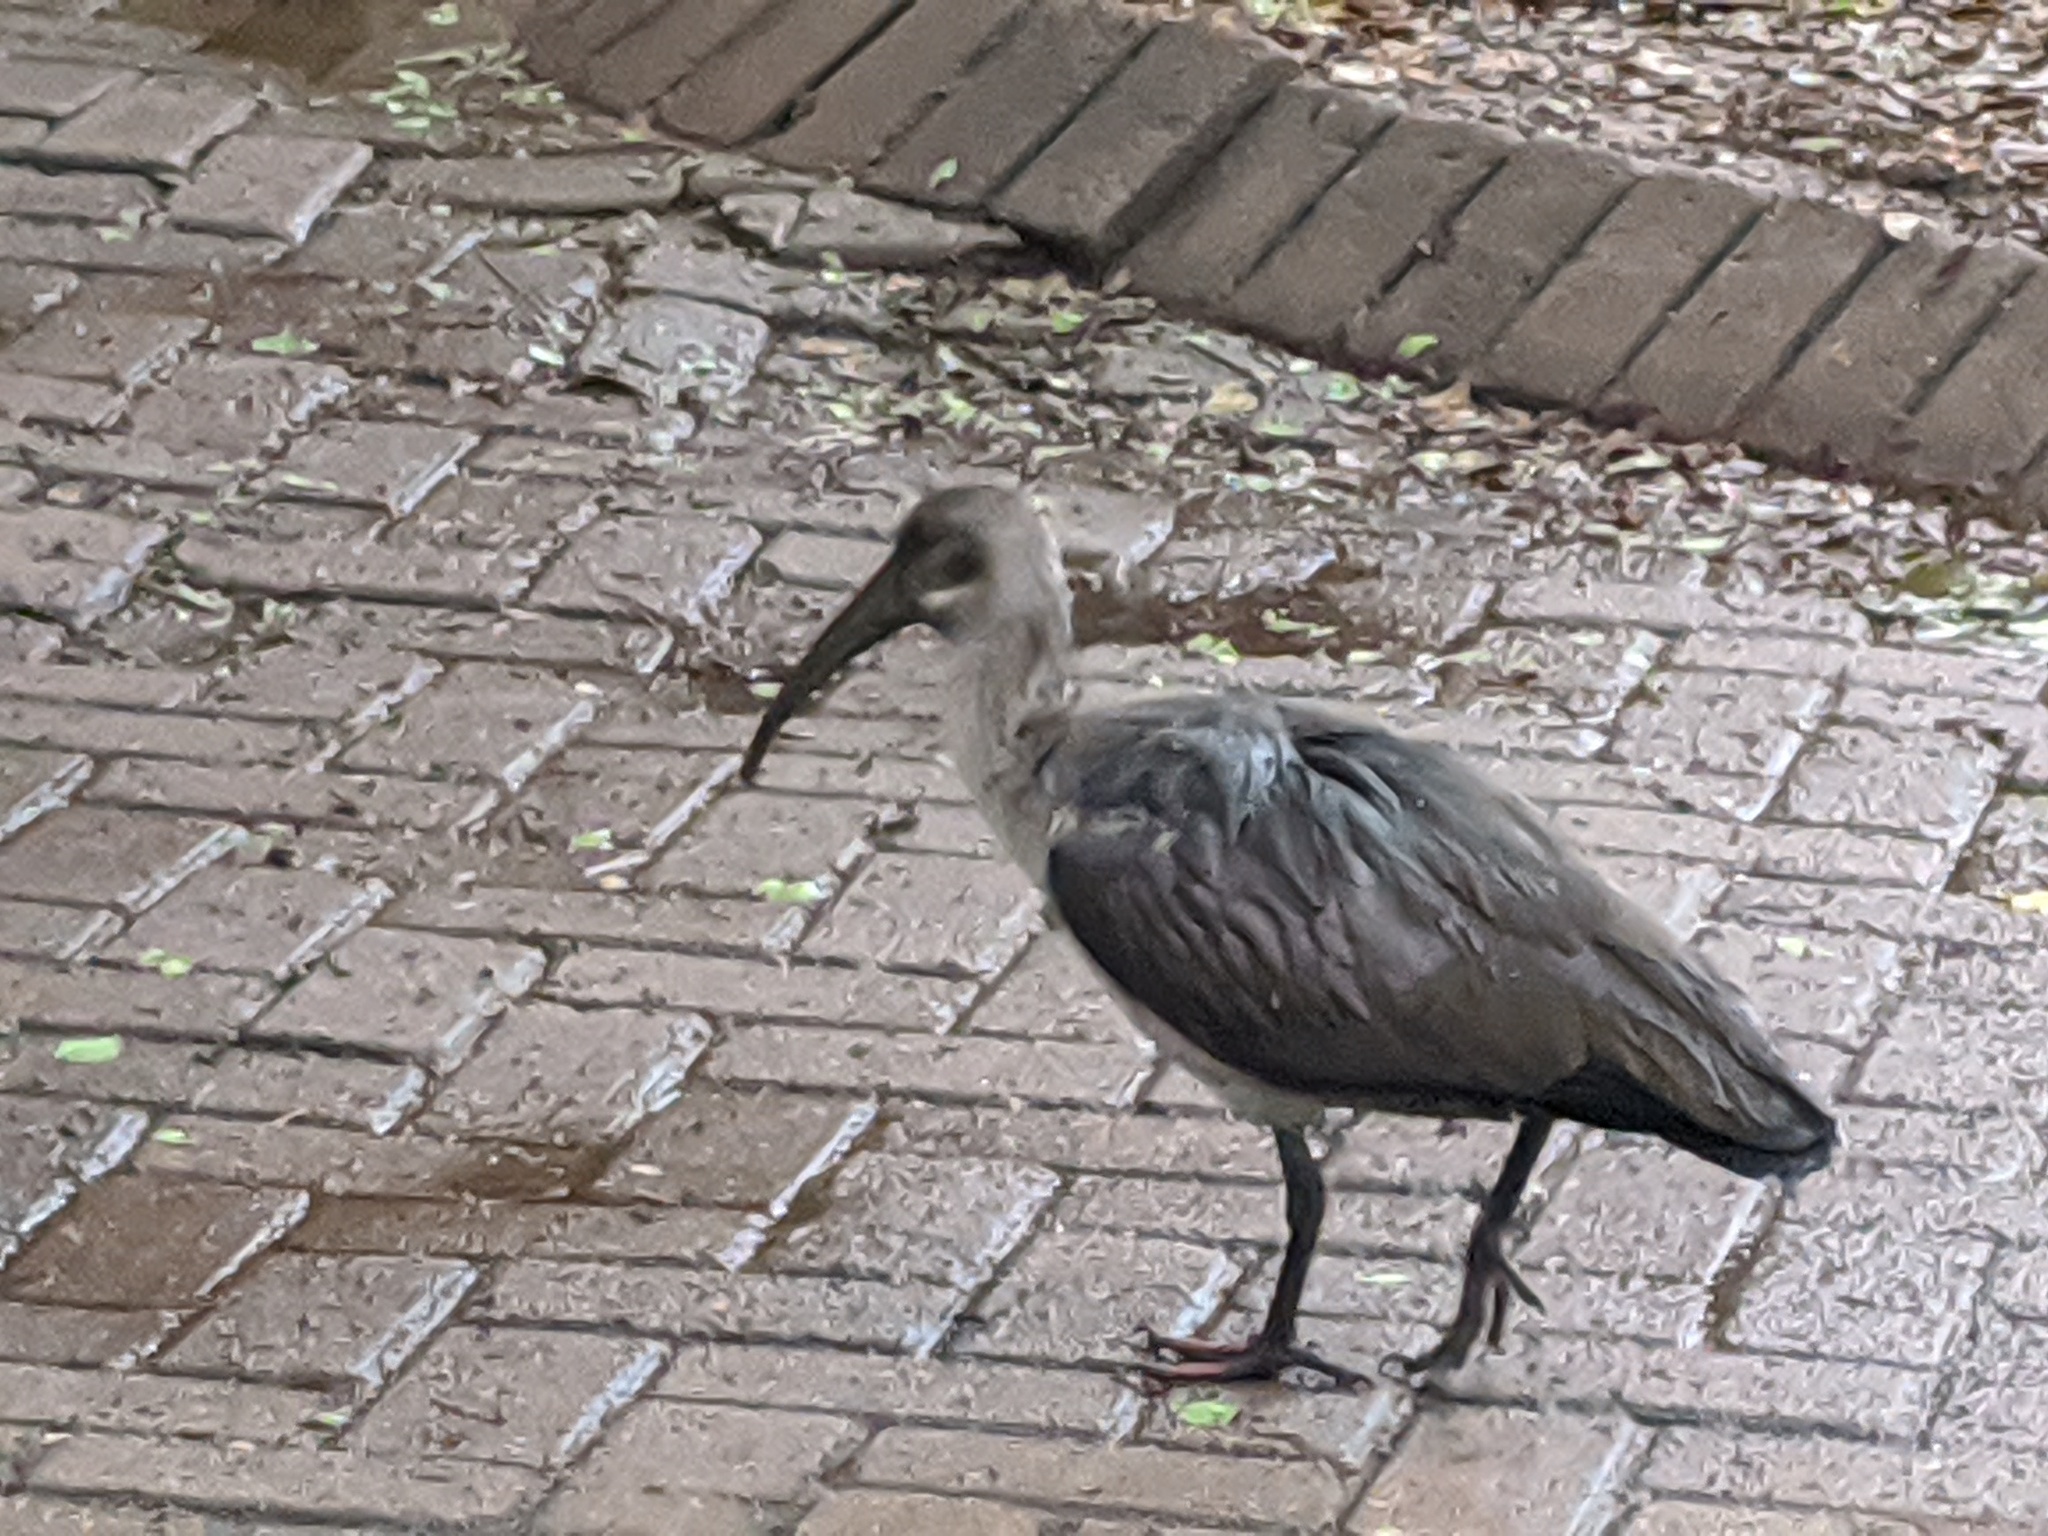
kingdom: Animalia
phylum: Chordata
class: Aves
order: Pelecaniformes
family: Threskiornithidae
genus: Bostrychia
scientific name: Bostrychia hagedash
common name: Hadada ibis
